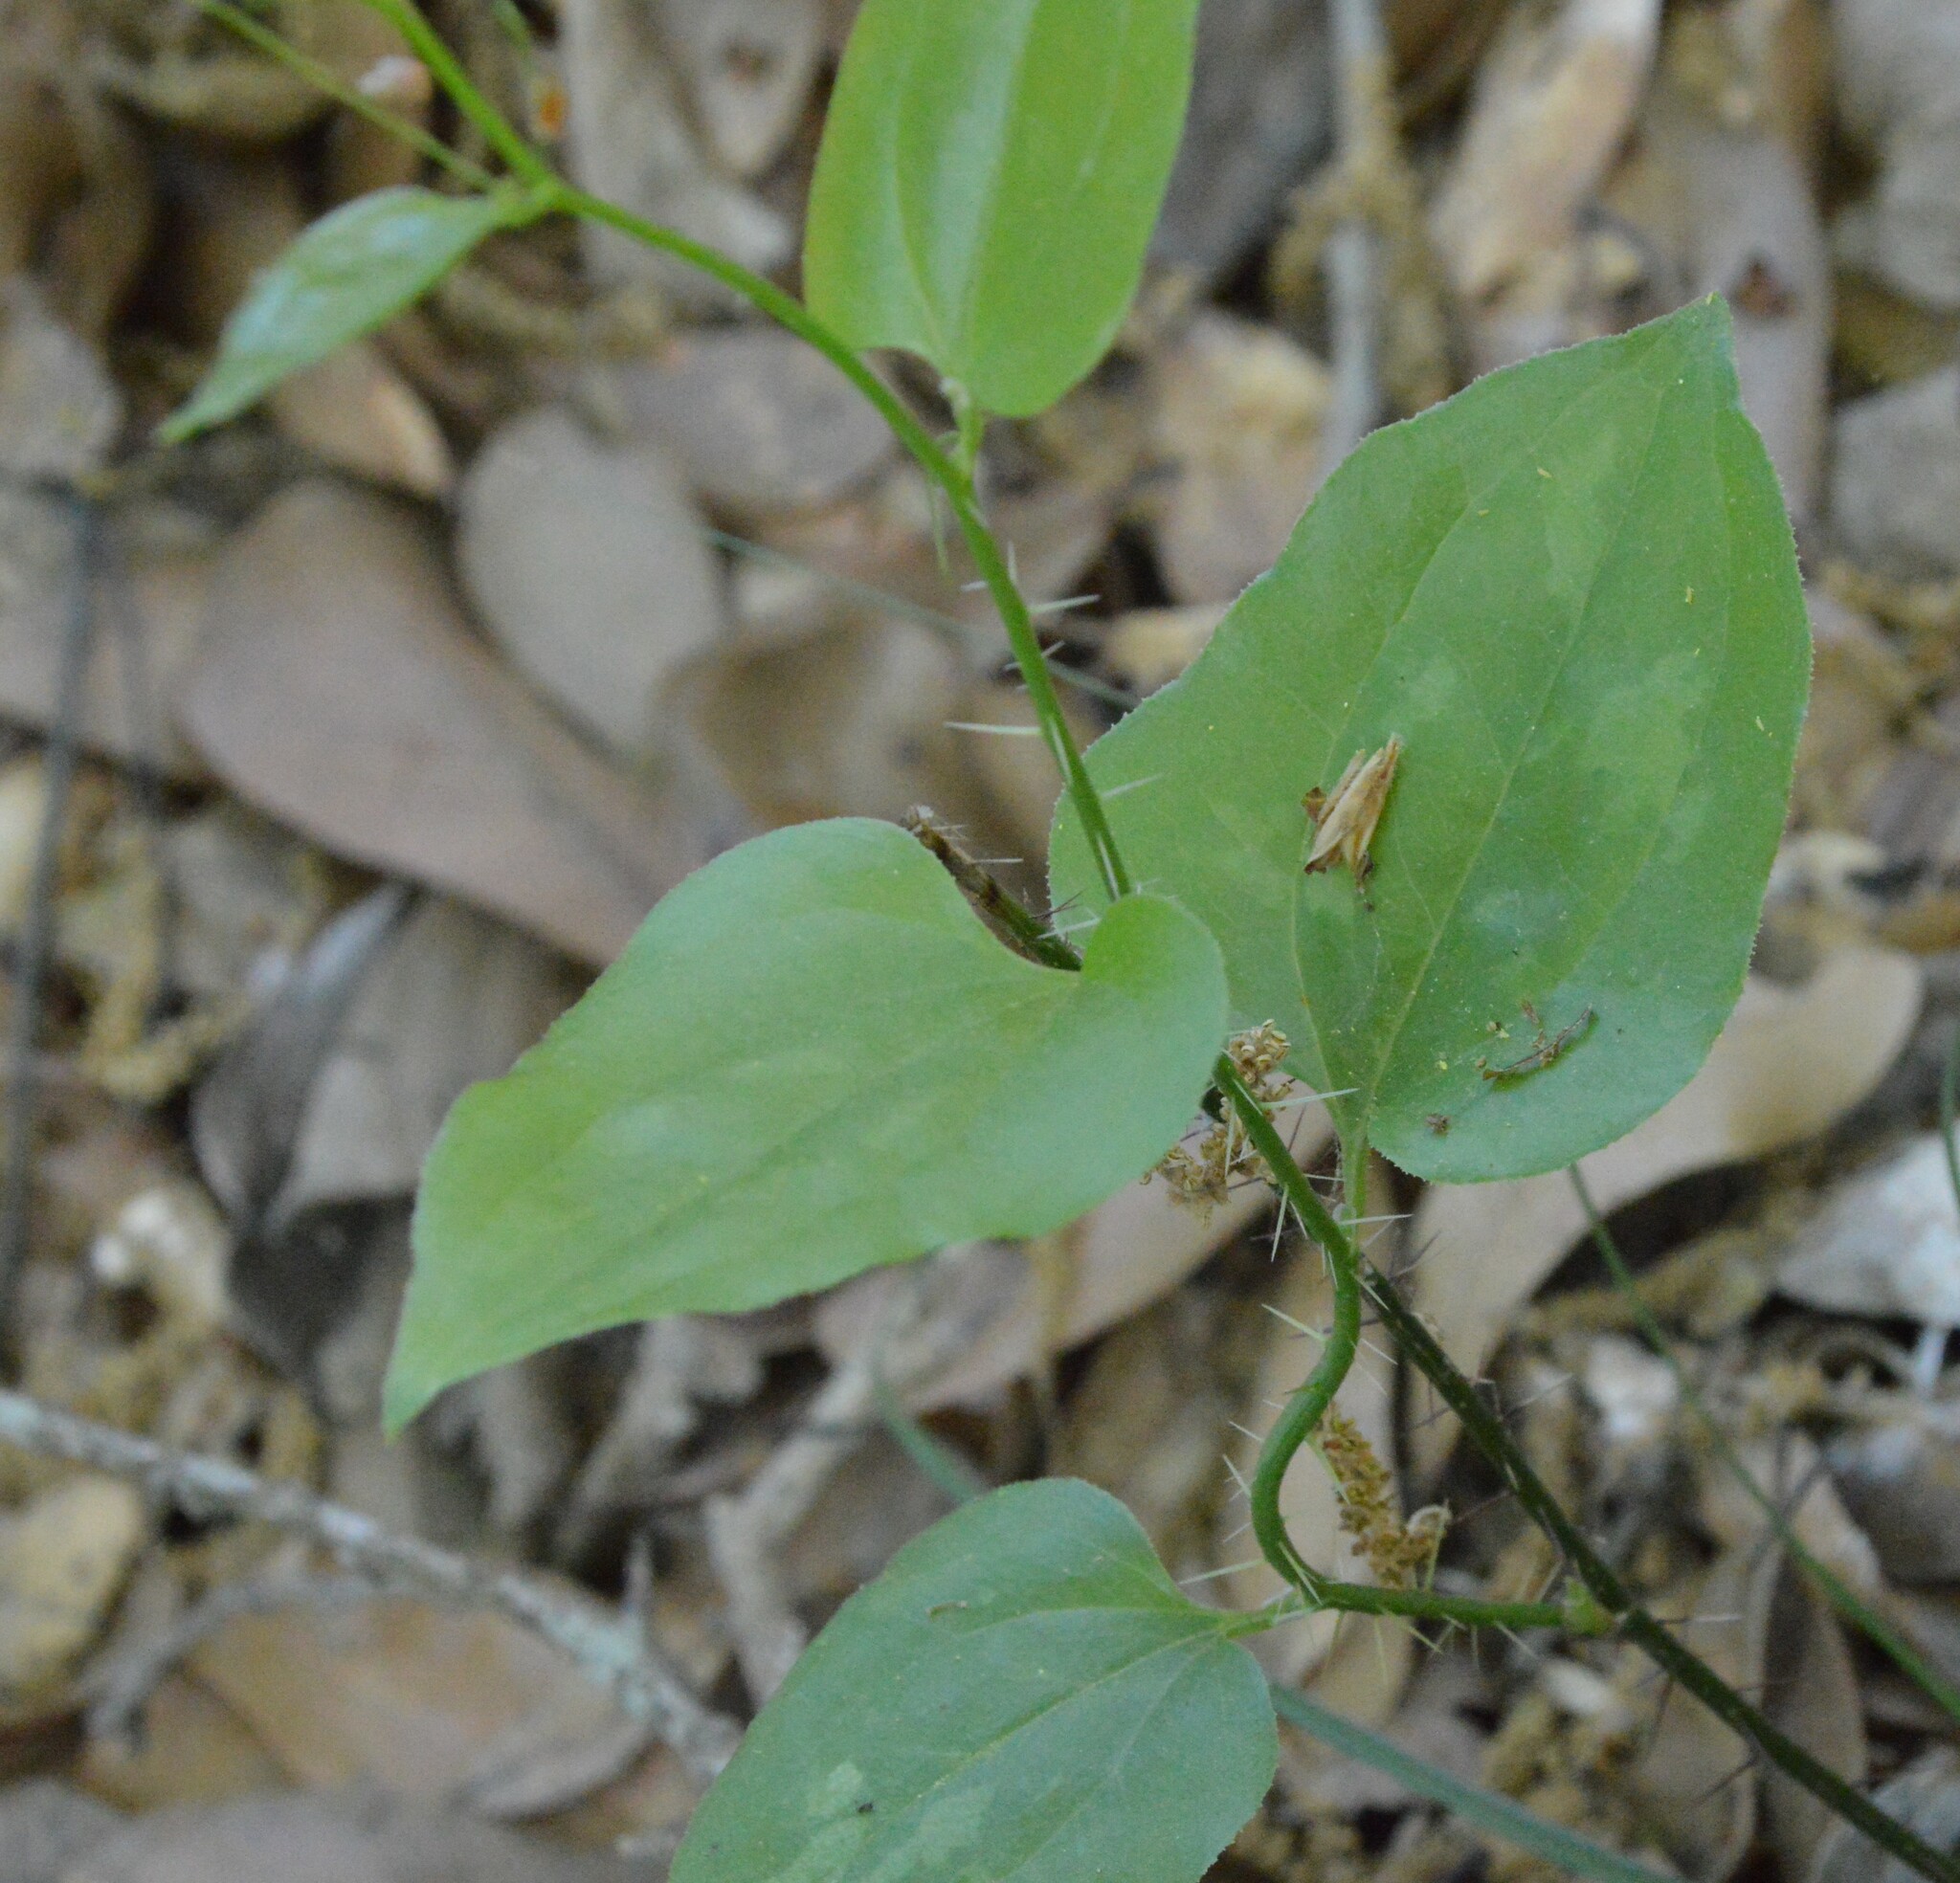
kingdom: Plantae
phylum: Tracheophyta
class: Liliopsida
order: Liliales
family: Smilacaceae
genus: Smilax
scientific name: Smilax tamnoides
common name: Hellfetter
